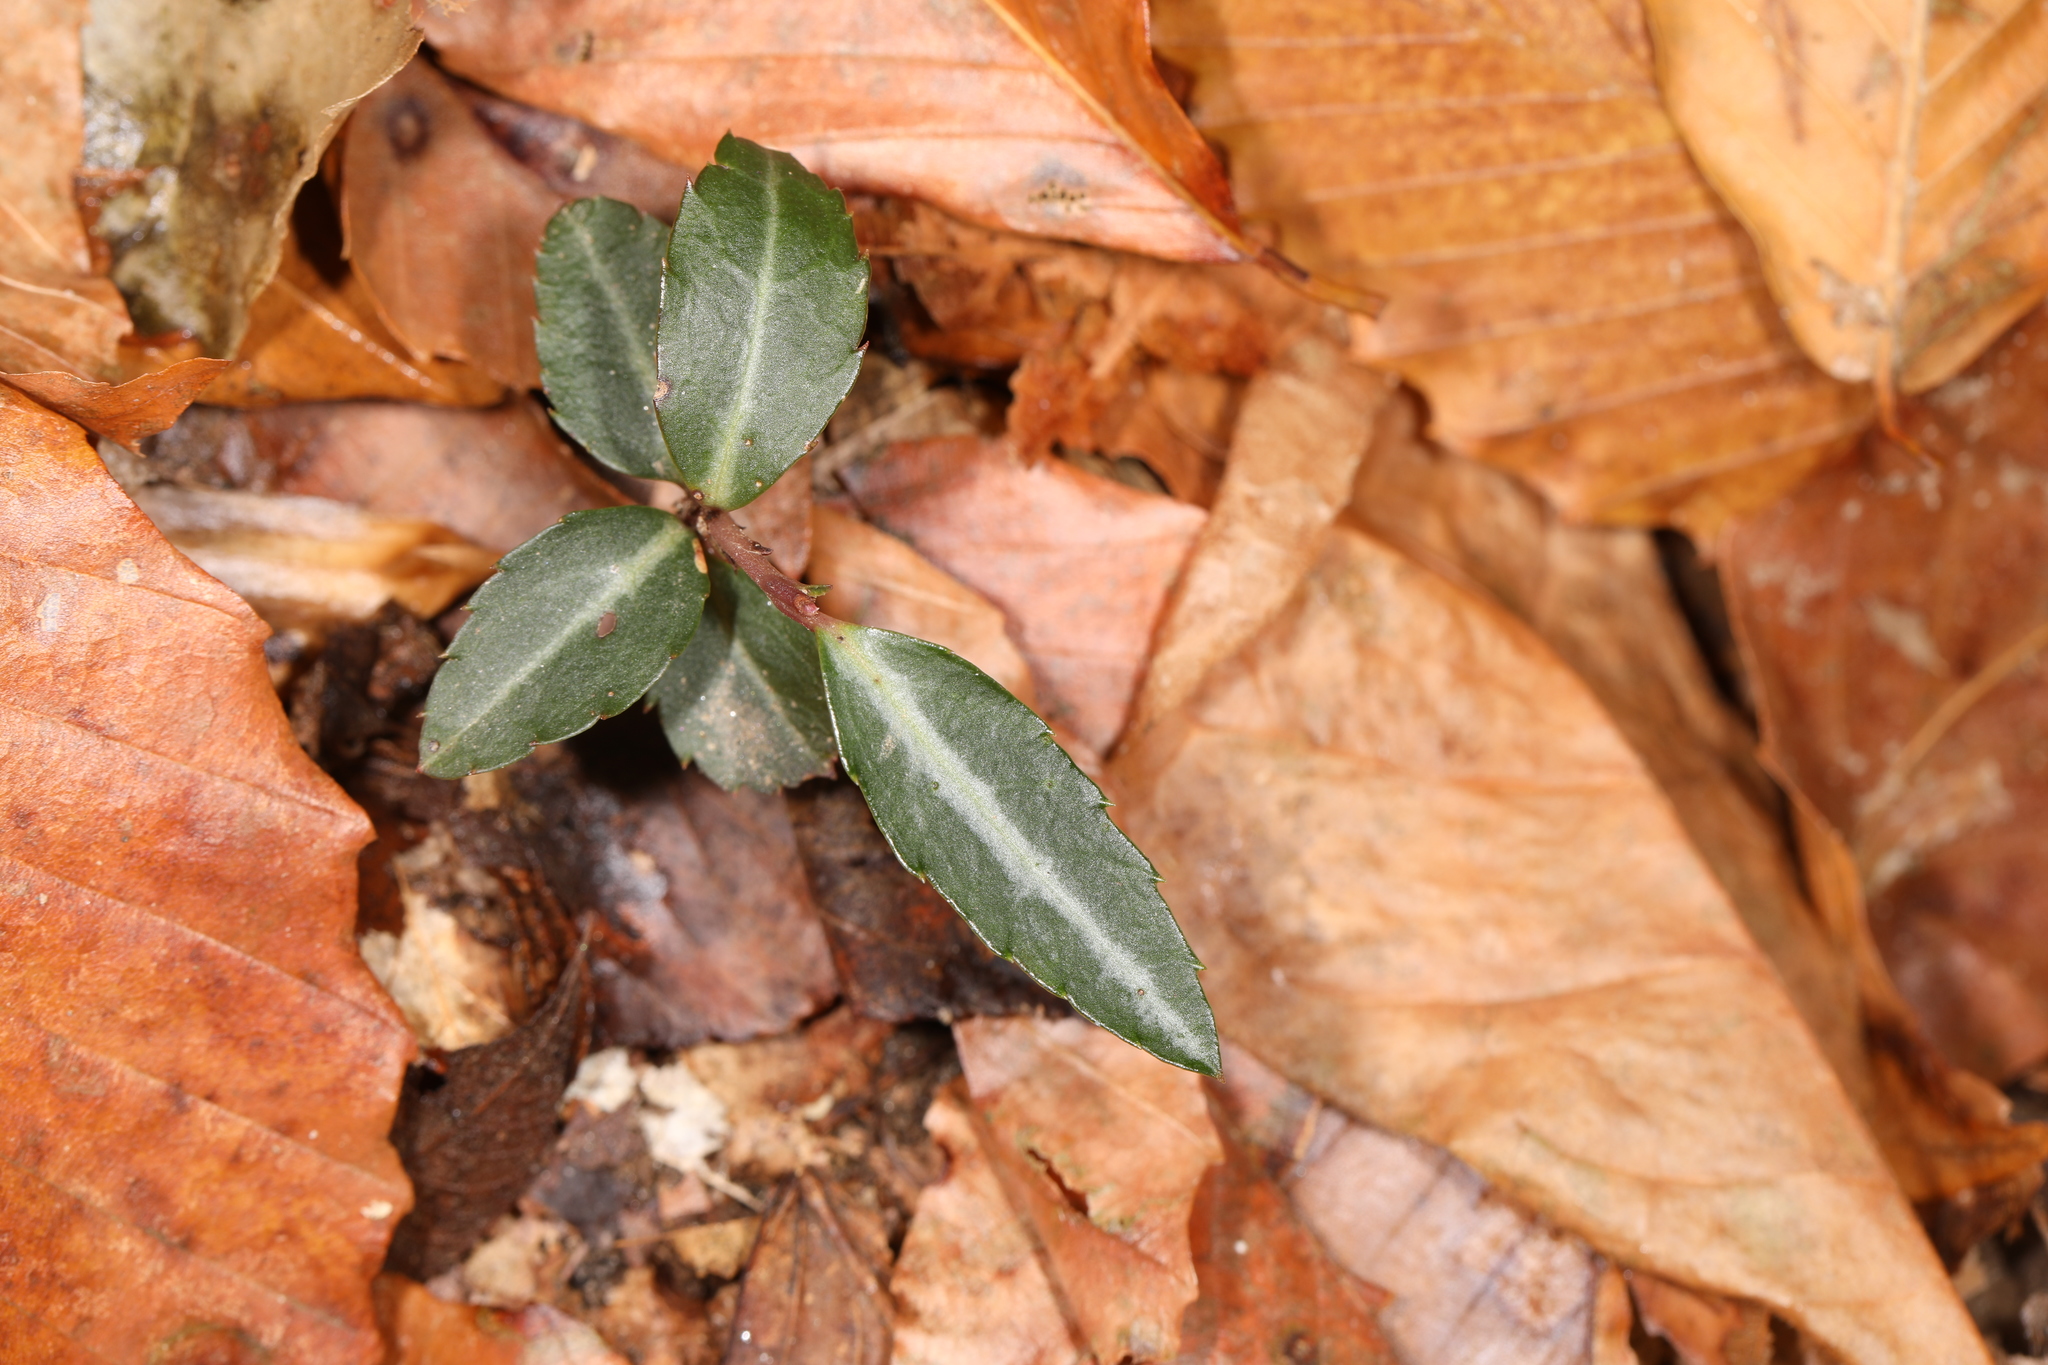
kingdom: Plantae
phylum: Tracheophyta
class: Magnoliopsida
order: Ericales
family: Ericaceae
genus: Chimaphila
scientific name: Chimaphila maculata
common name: Spotted pipsissewa
